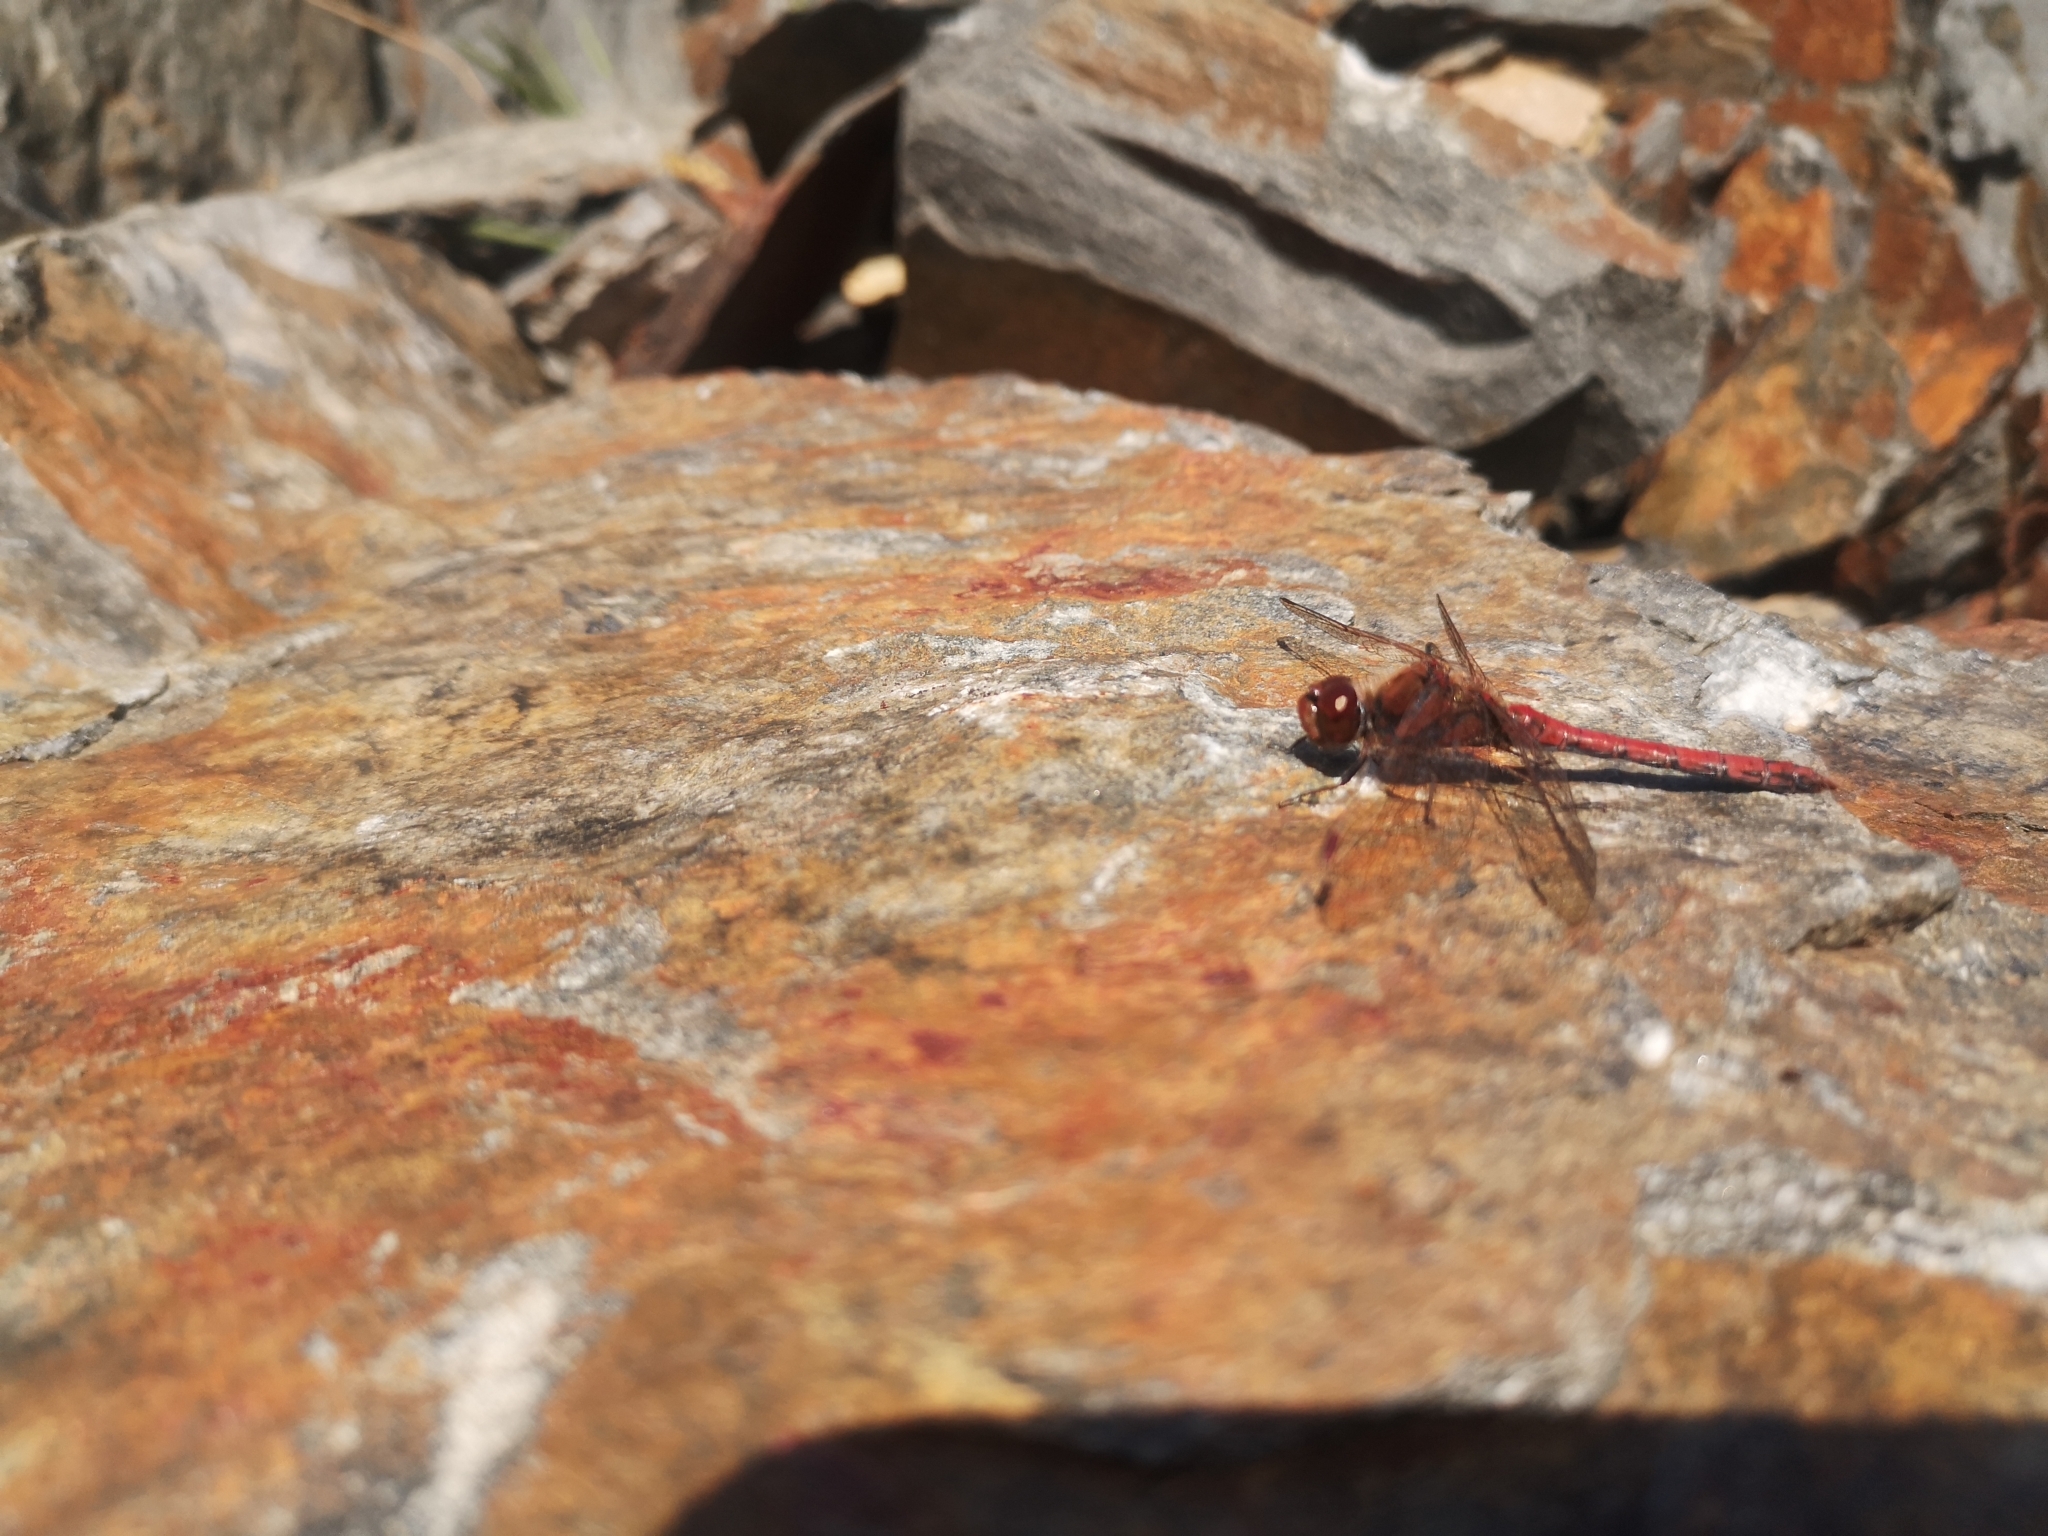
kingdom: Animalia
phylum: Arthropoda
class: Insecta
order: Odonata
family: Libellulidae
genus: Sympetrum
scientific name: Sympetrum sanguineum
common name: Ruddy darter
